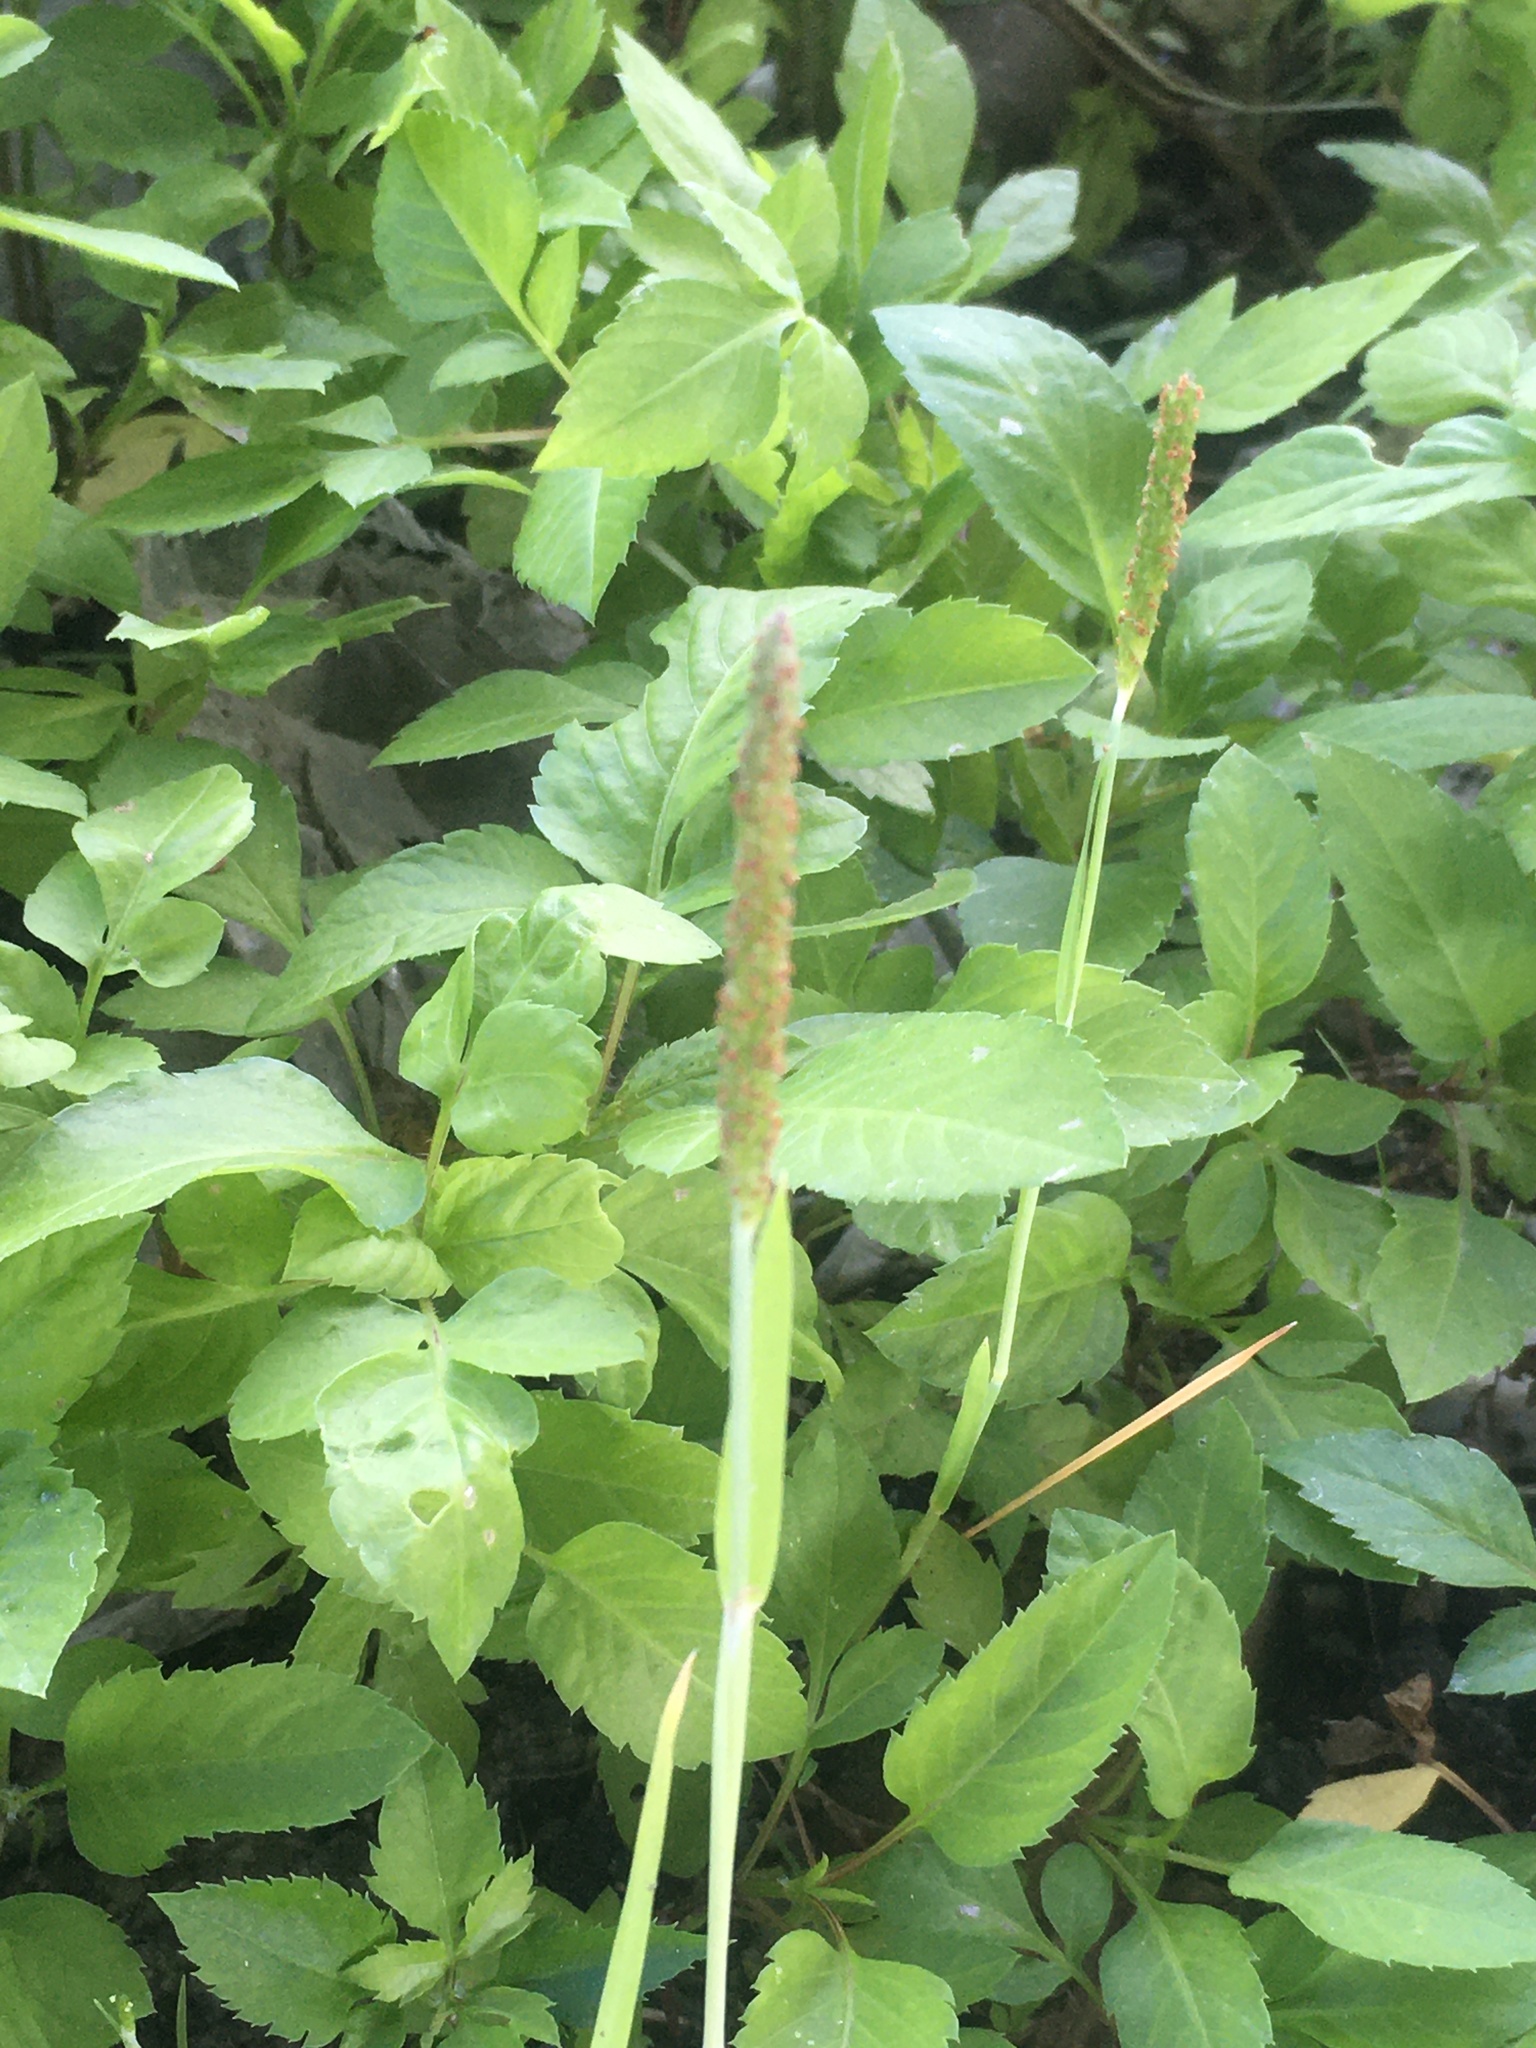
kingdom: Plantae
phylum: Tracheophyta
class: Liliopsida
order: Poales
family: Poaceae
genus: Alopecurus
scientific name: Alopecurus aequalis
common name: Orange foxtail
